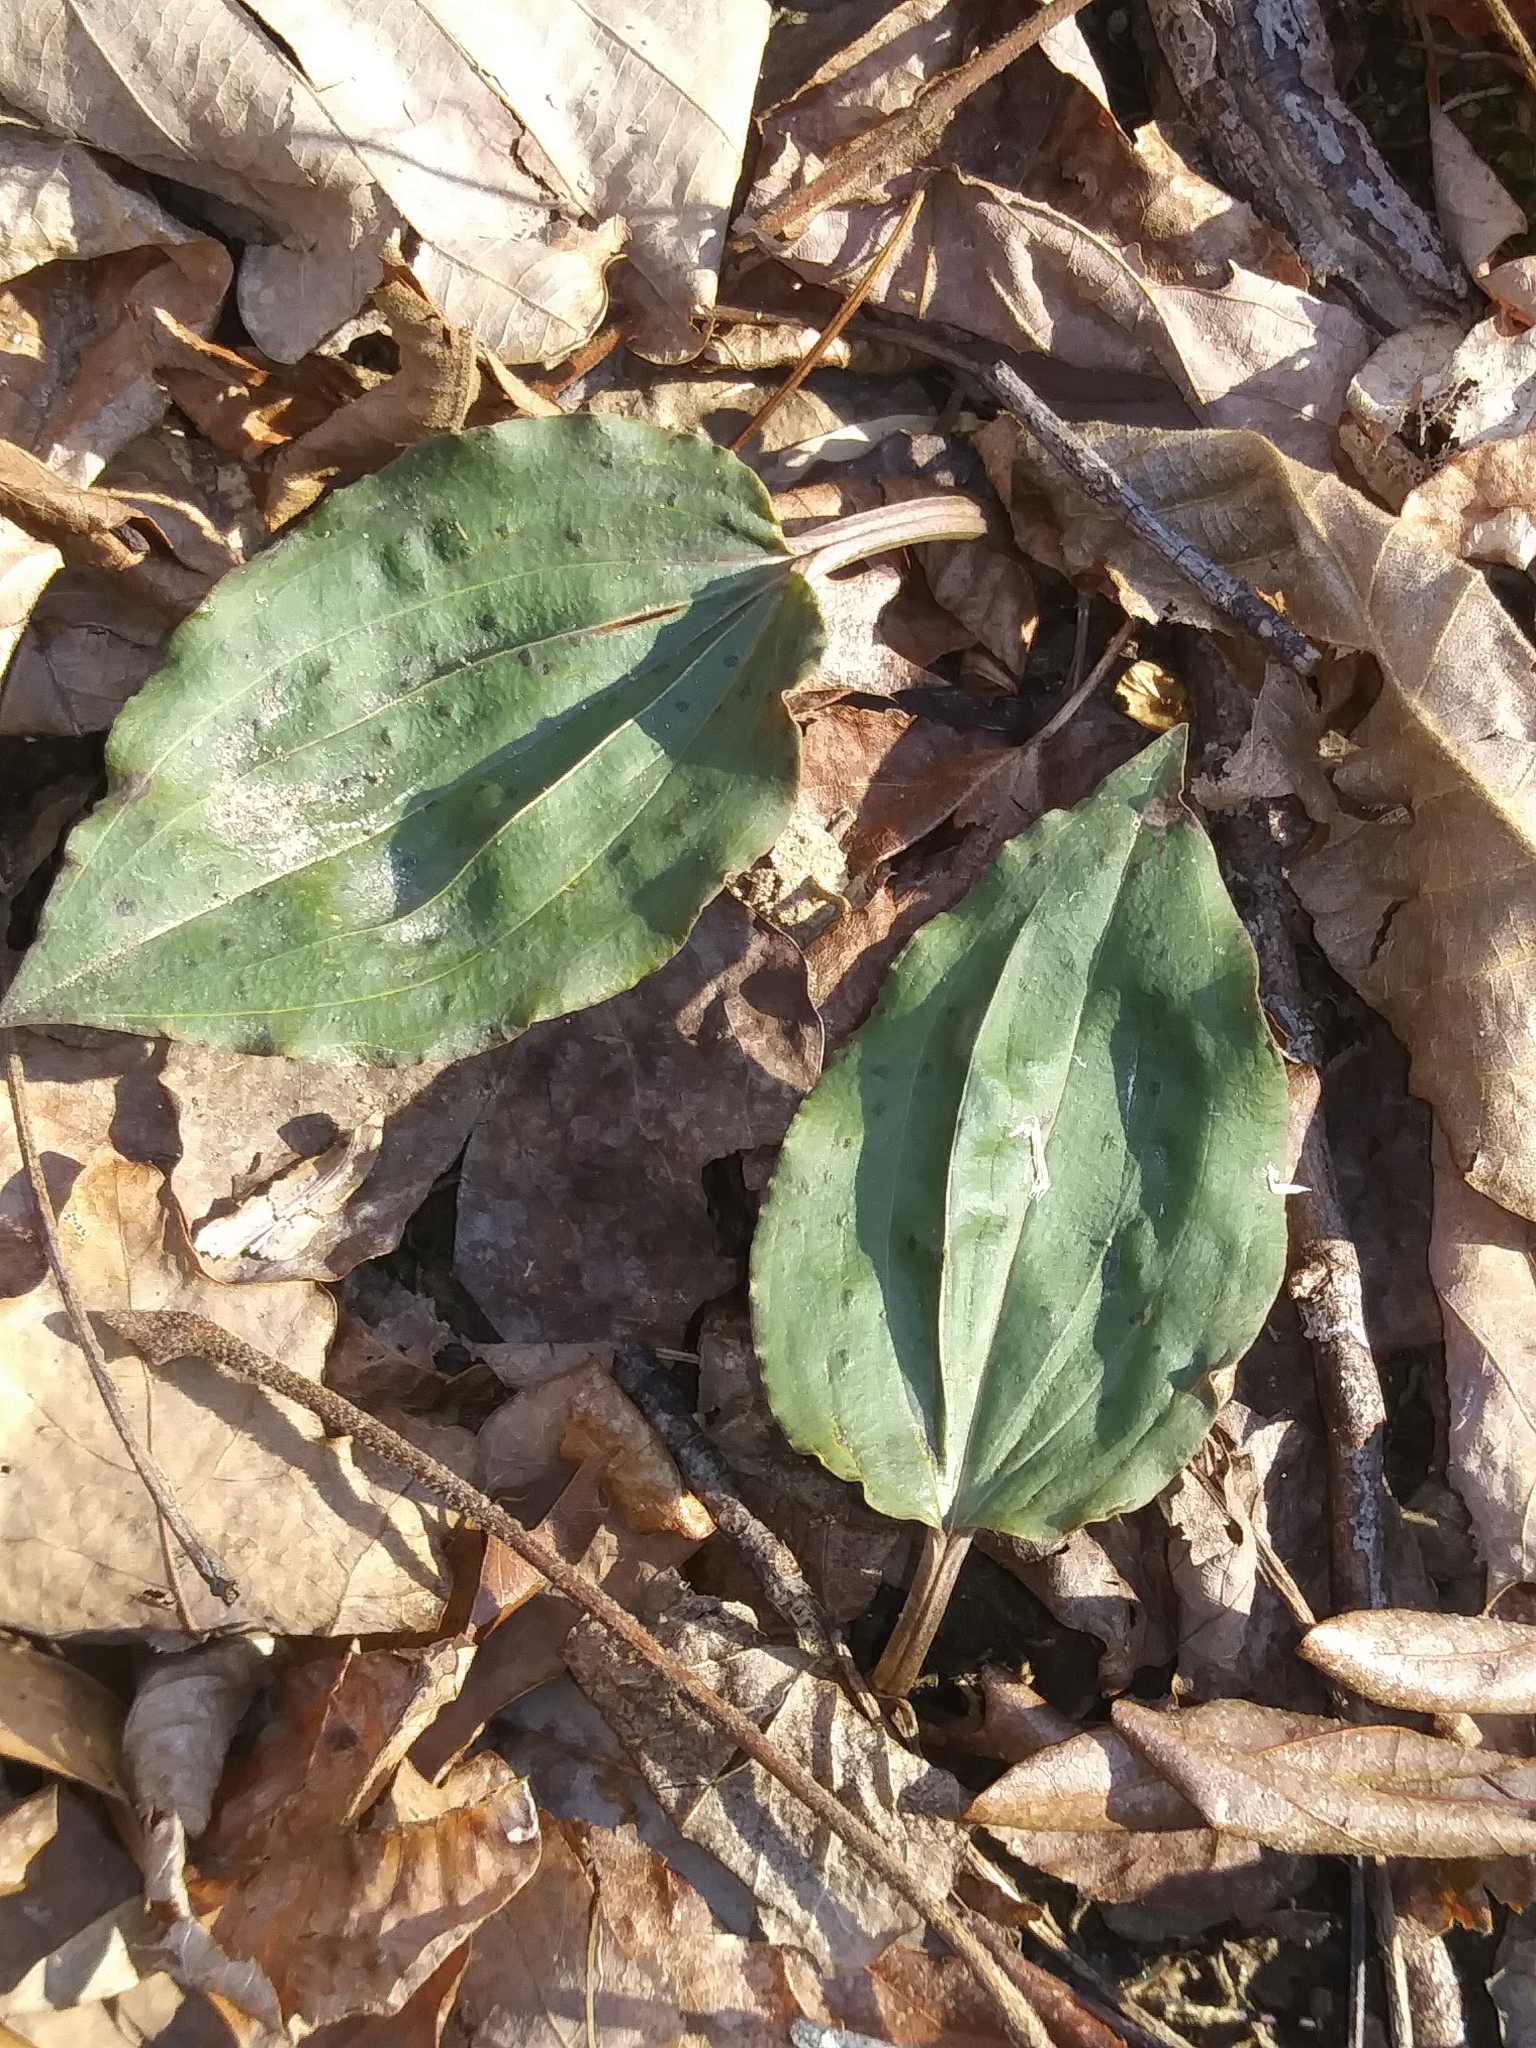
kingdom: Plantae
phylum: Tracheophyta
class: Liliopsida
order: Asparagales
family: Orchidaceae
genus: Tipularia
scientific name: Tipularia discolor
